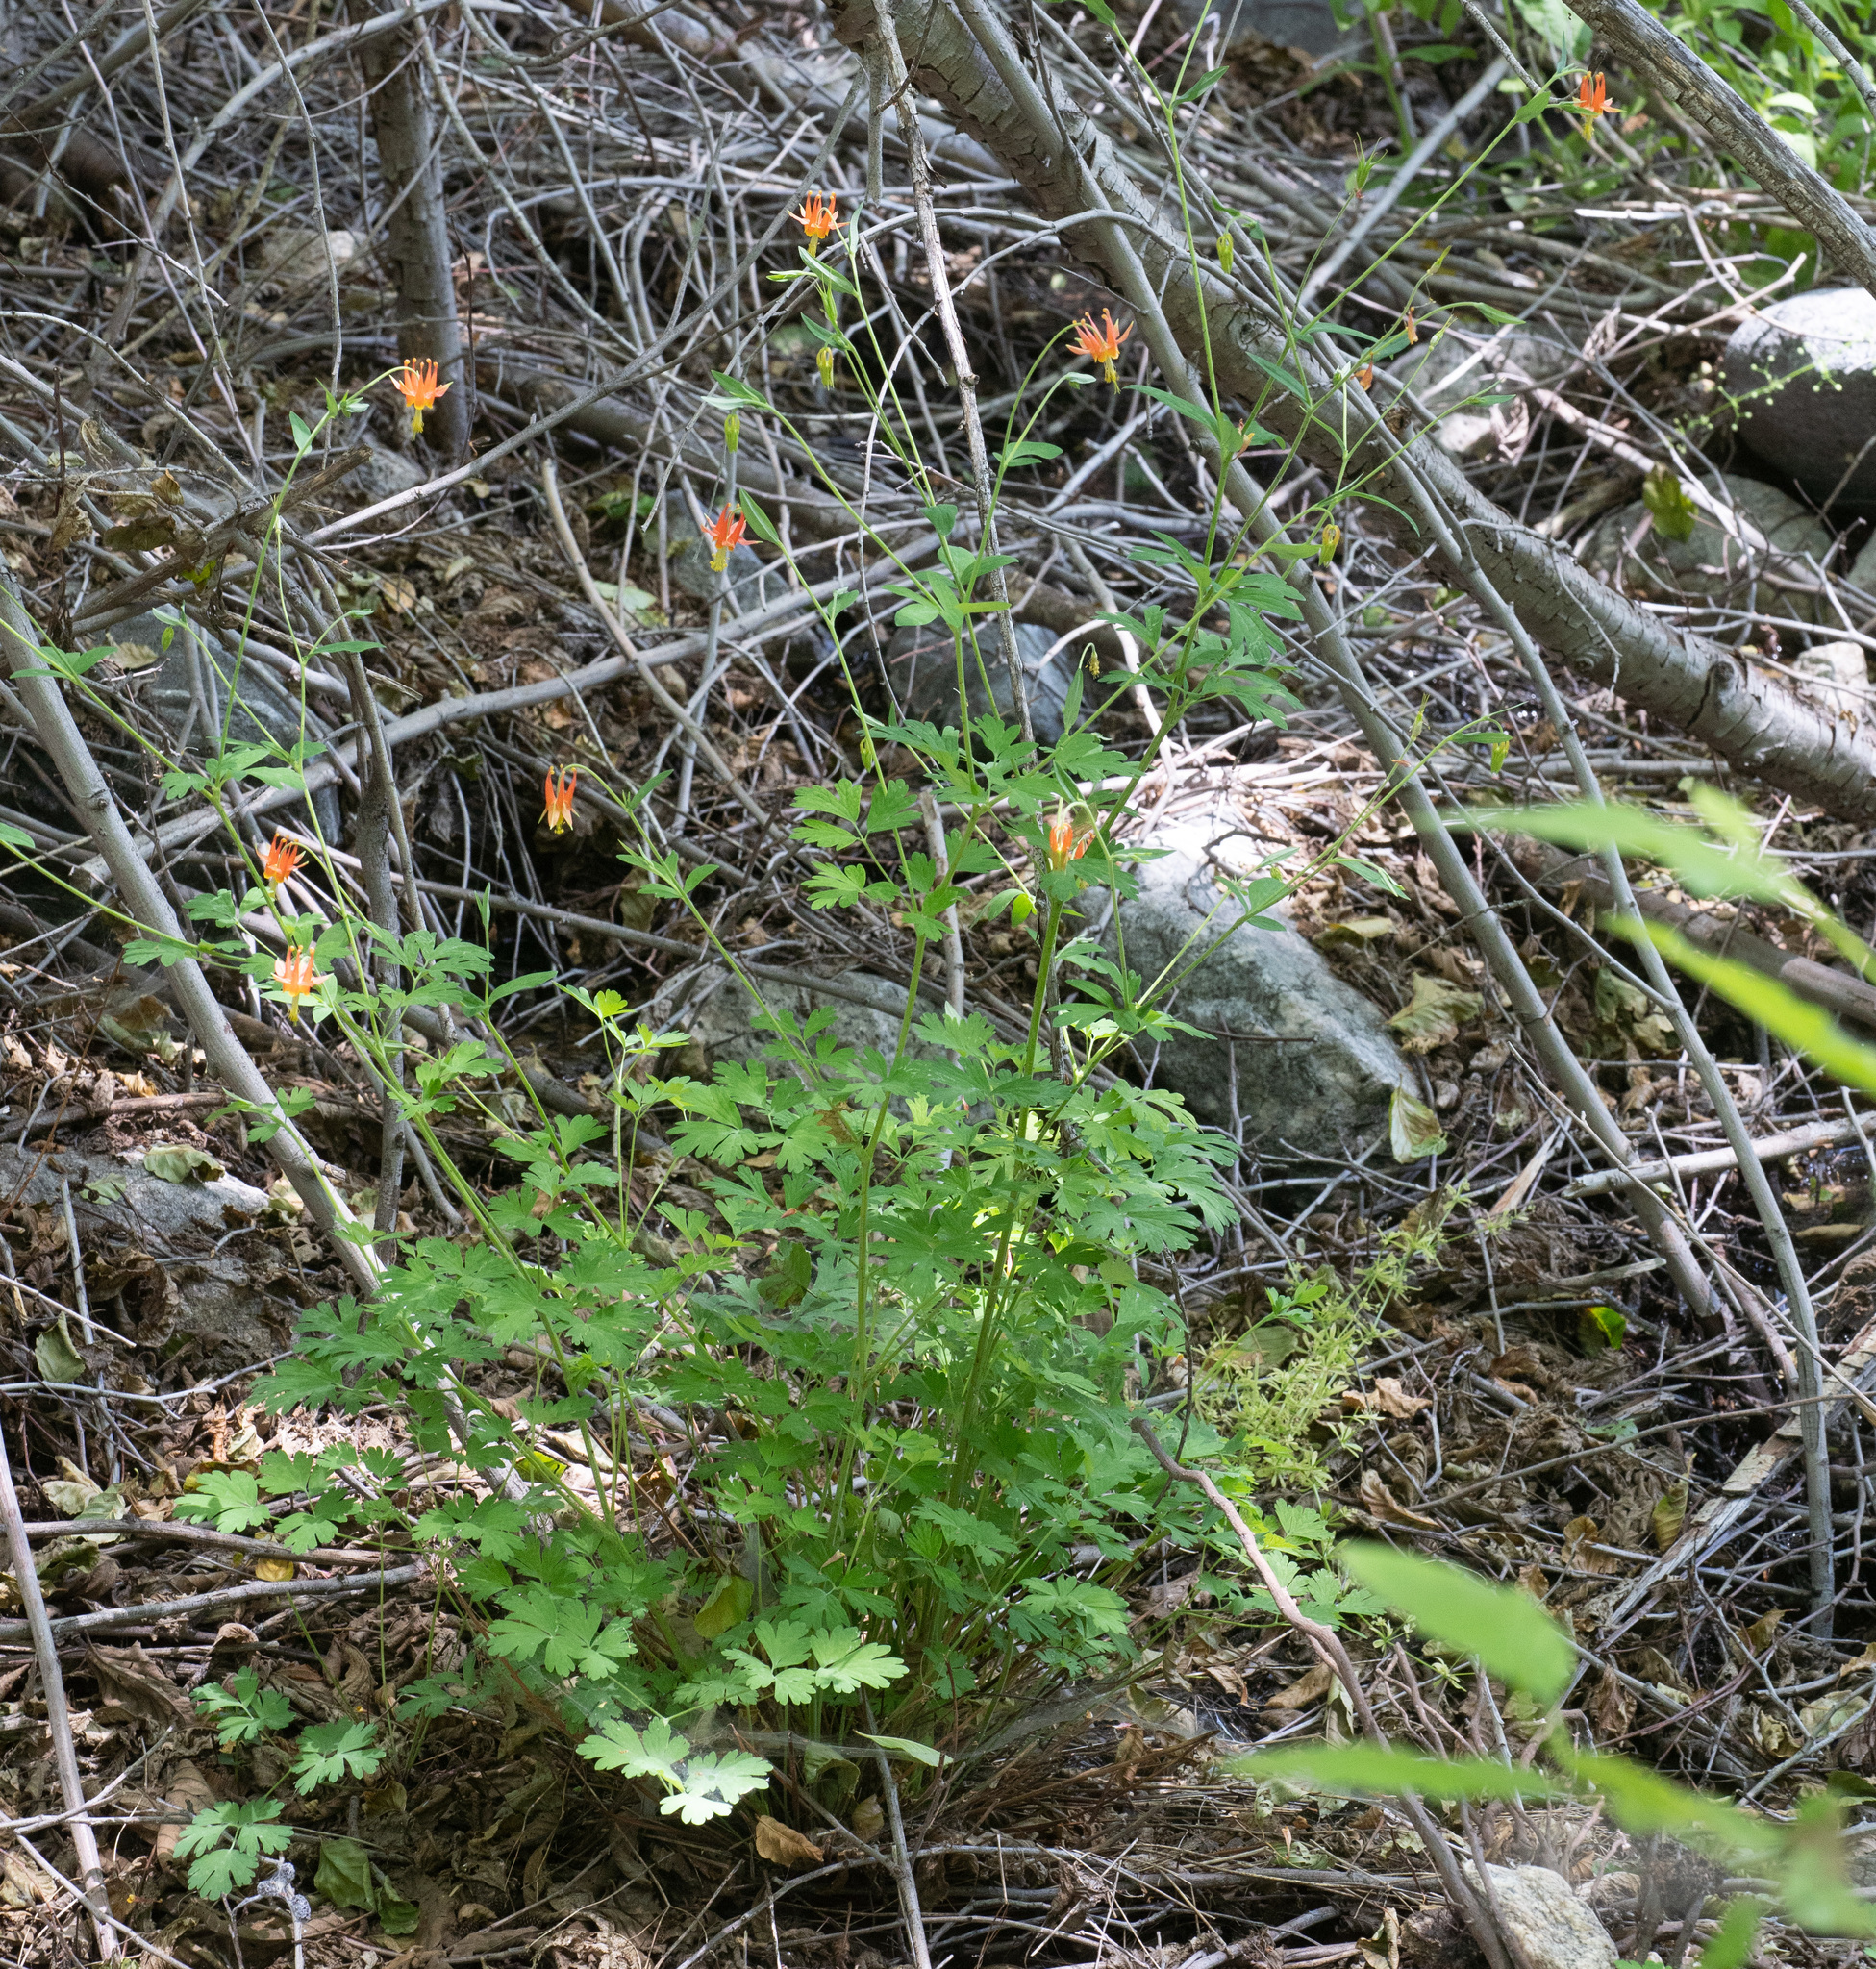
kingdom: Plantae
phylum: Tracheophyta
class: Magnoliopsida
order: Ranunculales
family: Ranunculaceae
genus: Aquilegia
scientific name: Aquilegia formosa
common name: Sitka columbine
